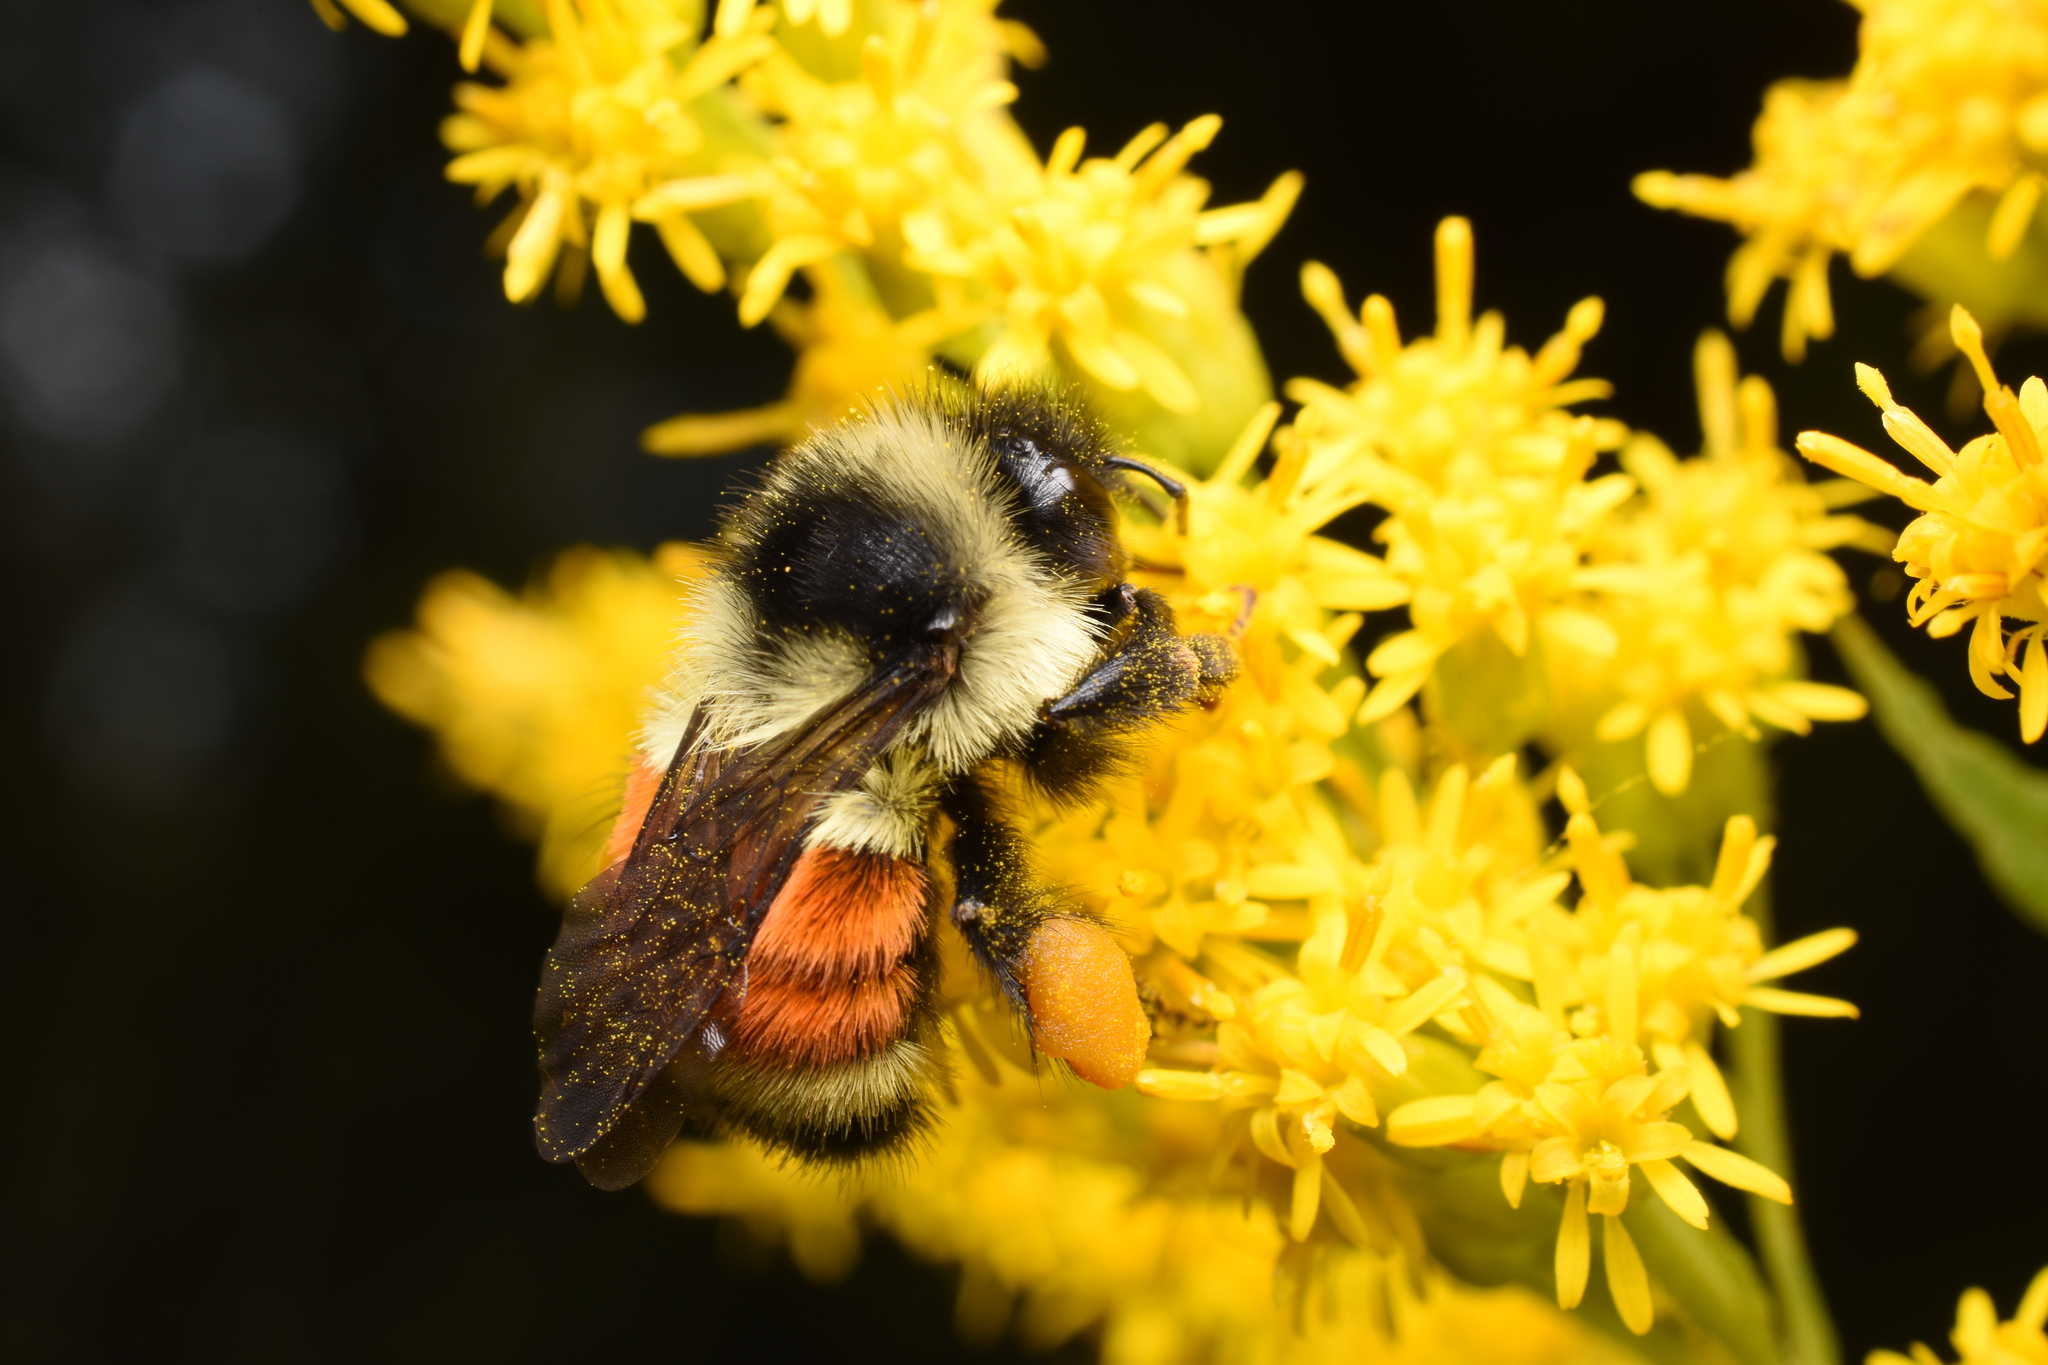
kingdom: Animalia
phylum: Arthropoda
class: Insecta
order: Hymenoptera
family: Apidae
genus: Bombus
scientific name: Bombus ternarius
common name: Tri-colored bumble bee
